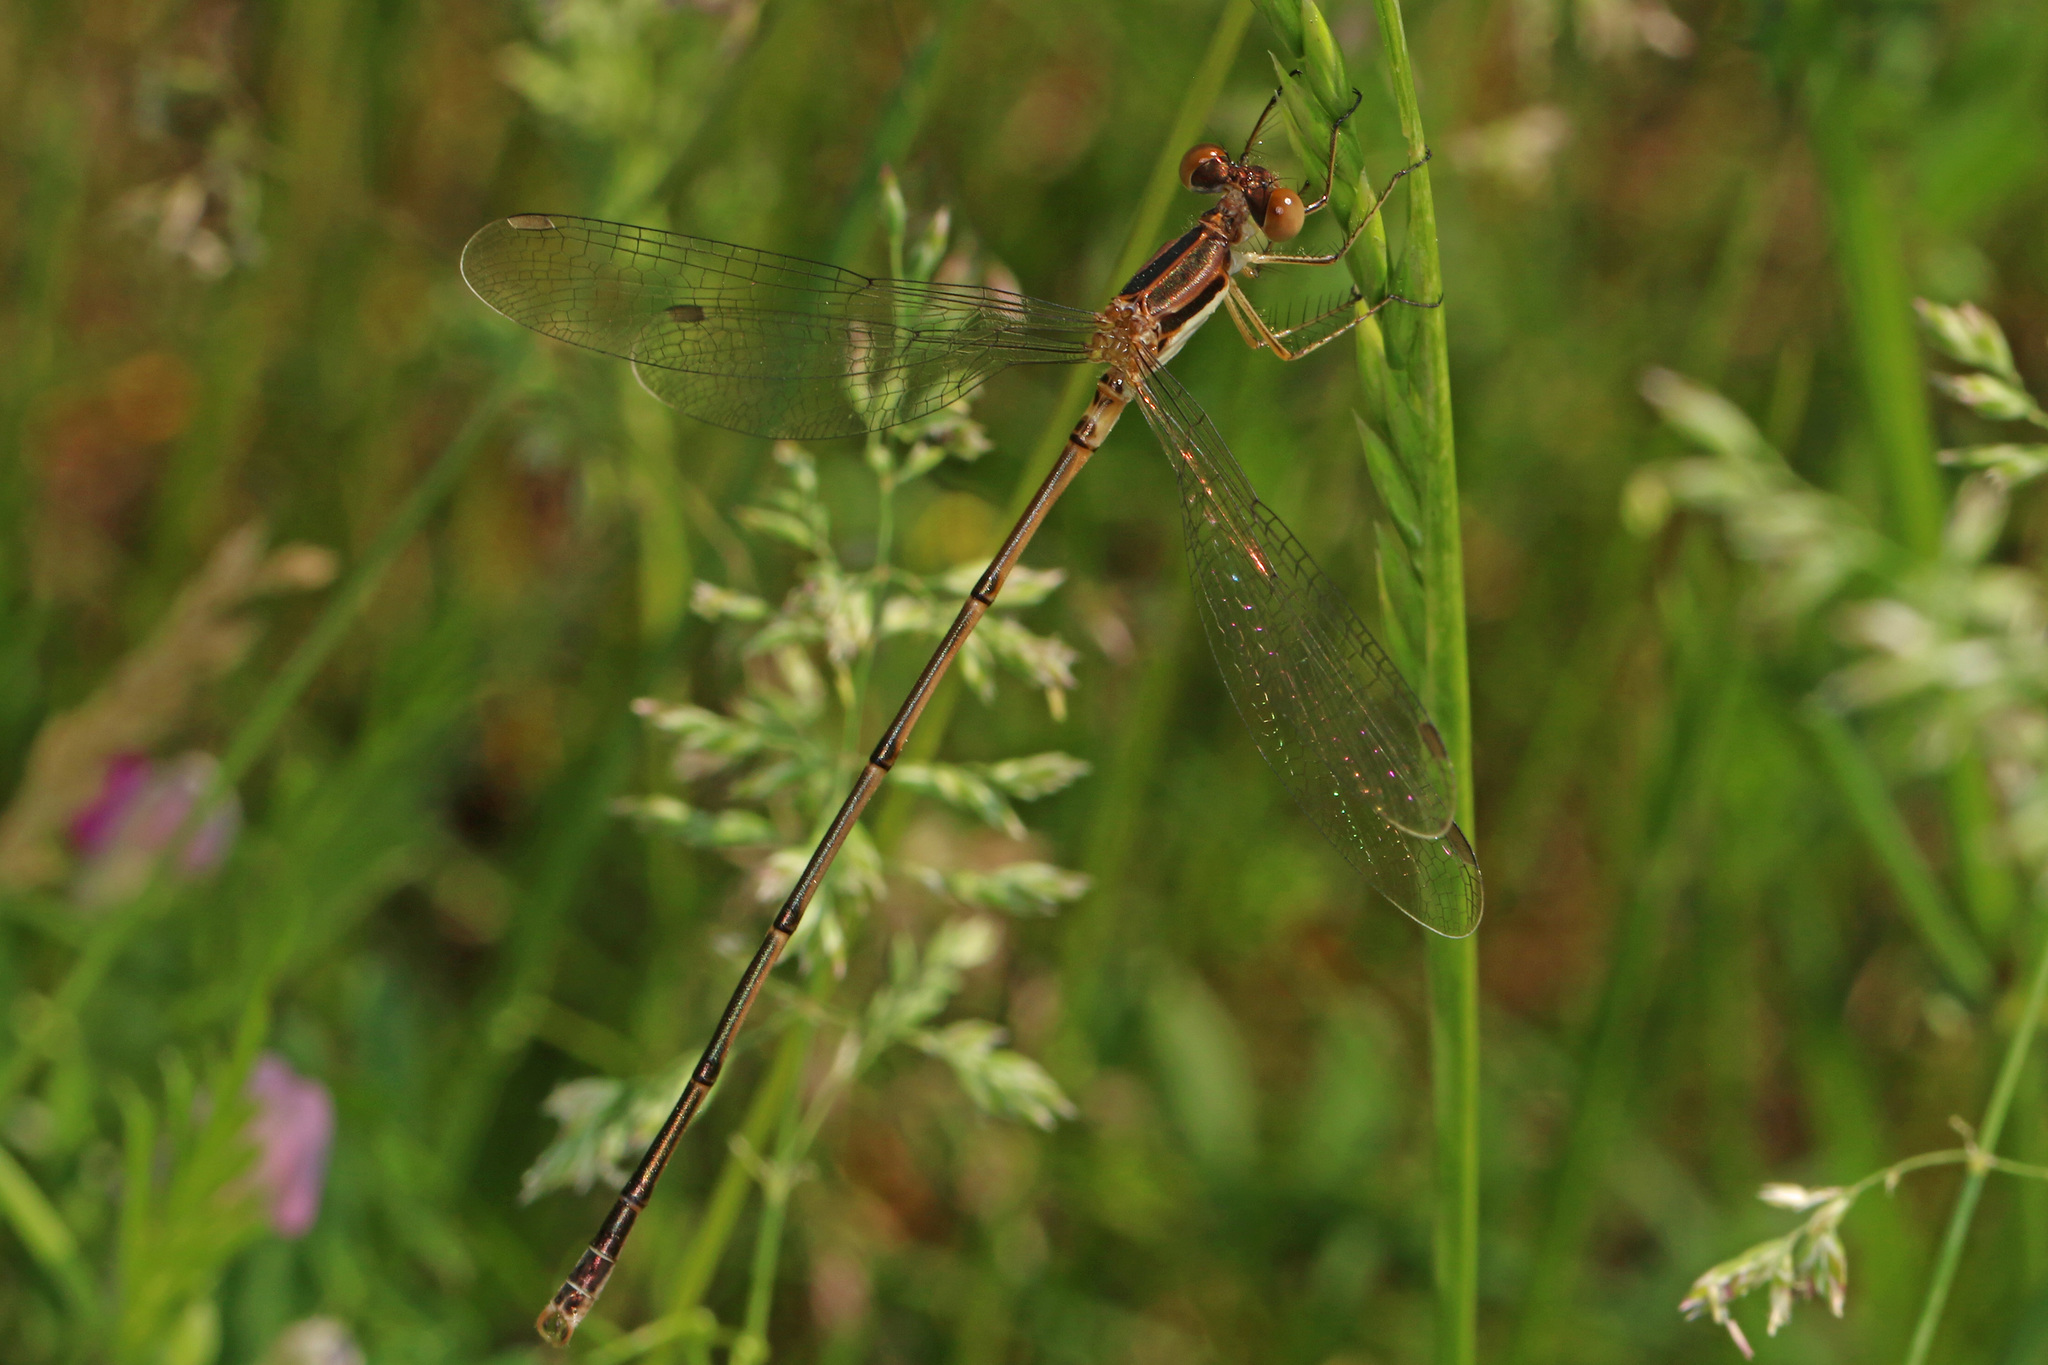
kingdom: Animalia
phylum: Arthropoda
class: Insecta
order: Odonata
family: Lestidae
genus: Lestes
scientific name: Lestes rectangularis
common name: Slender spreadwing
